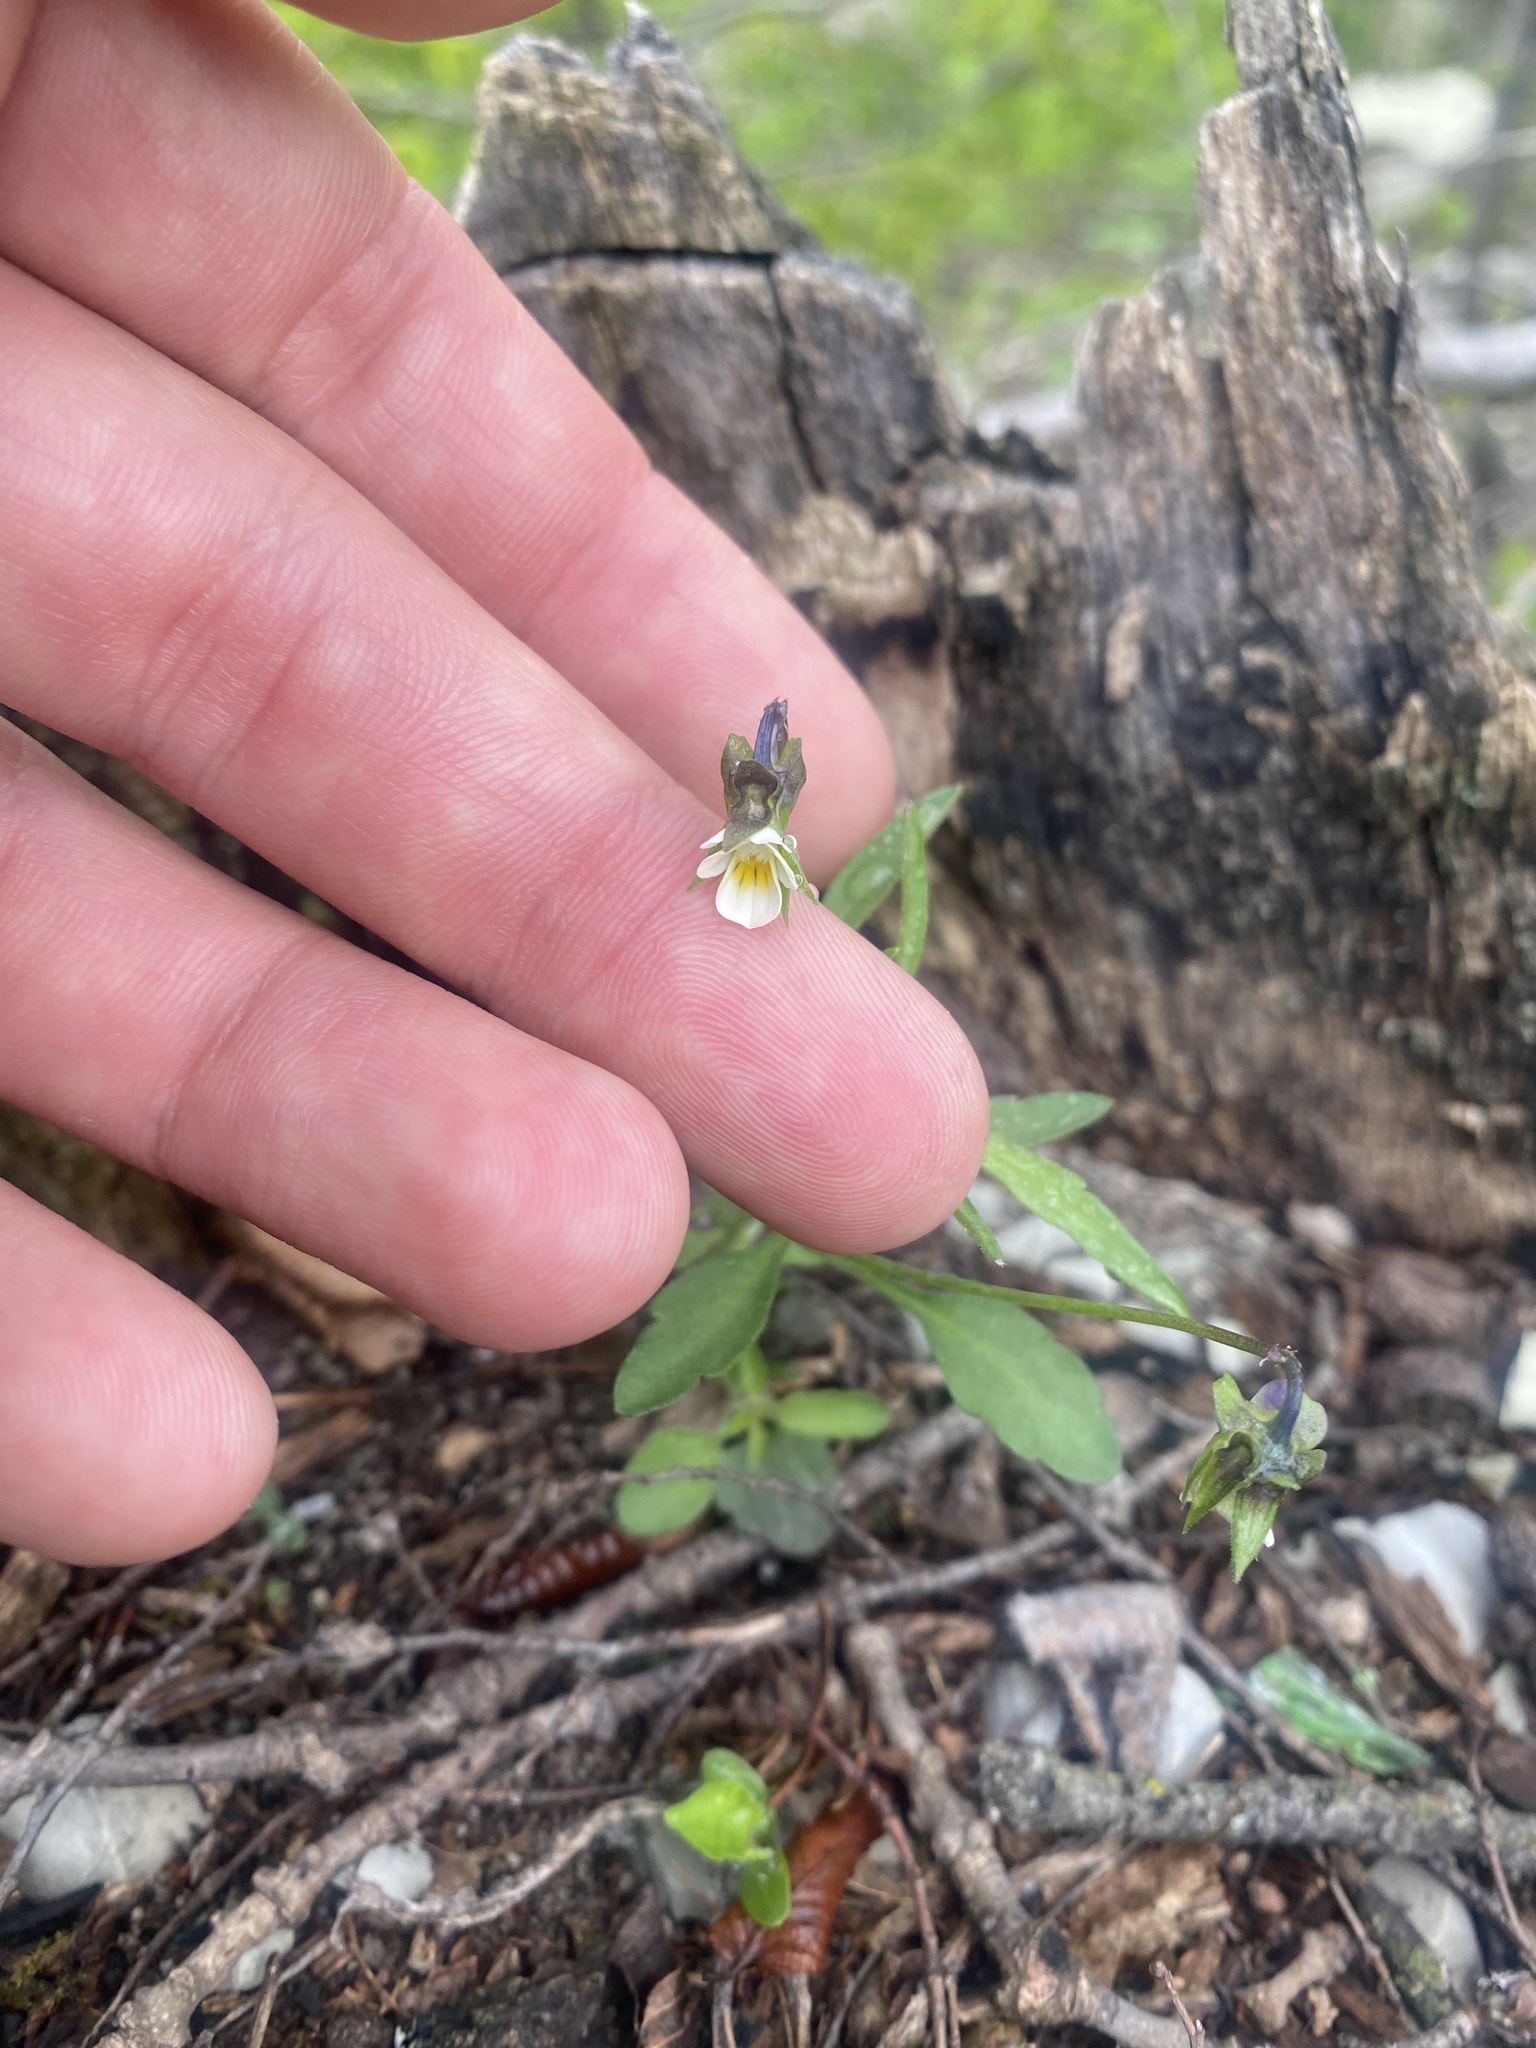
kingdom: Plantae
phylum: Tracheophyta
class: Magnoliopsida
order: Malpighiales
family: Violaceae
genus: Viola
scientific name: Viola kitaibeliana
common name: Dwarf pansy
